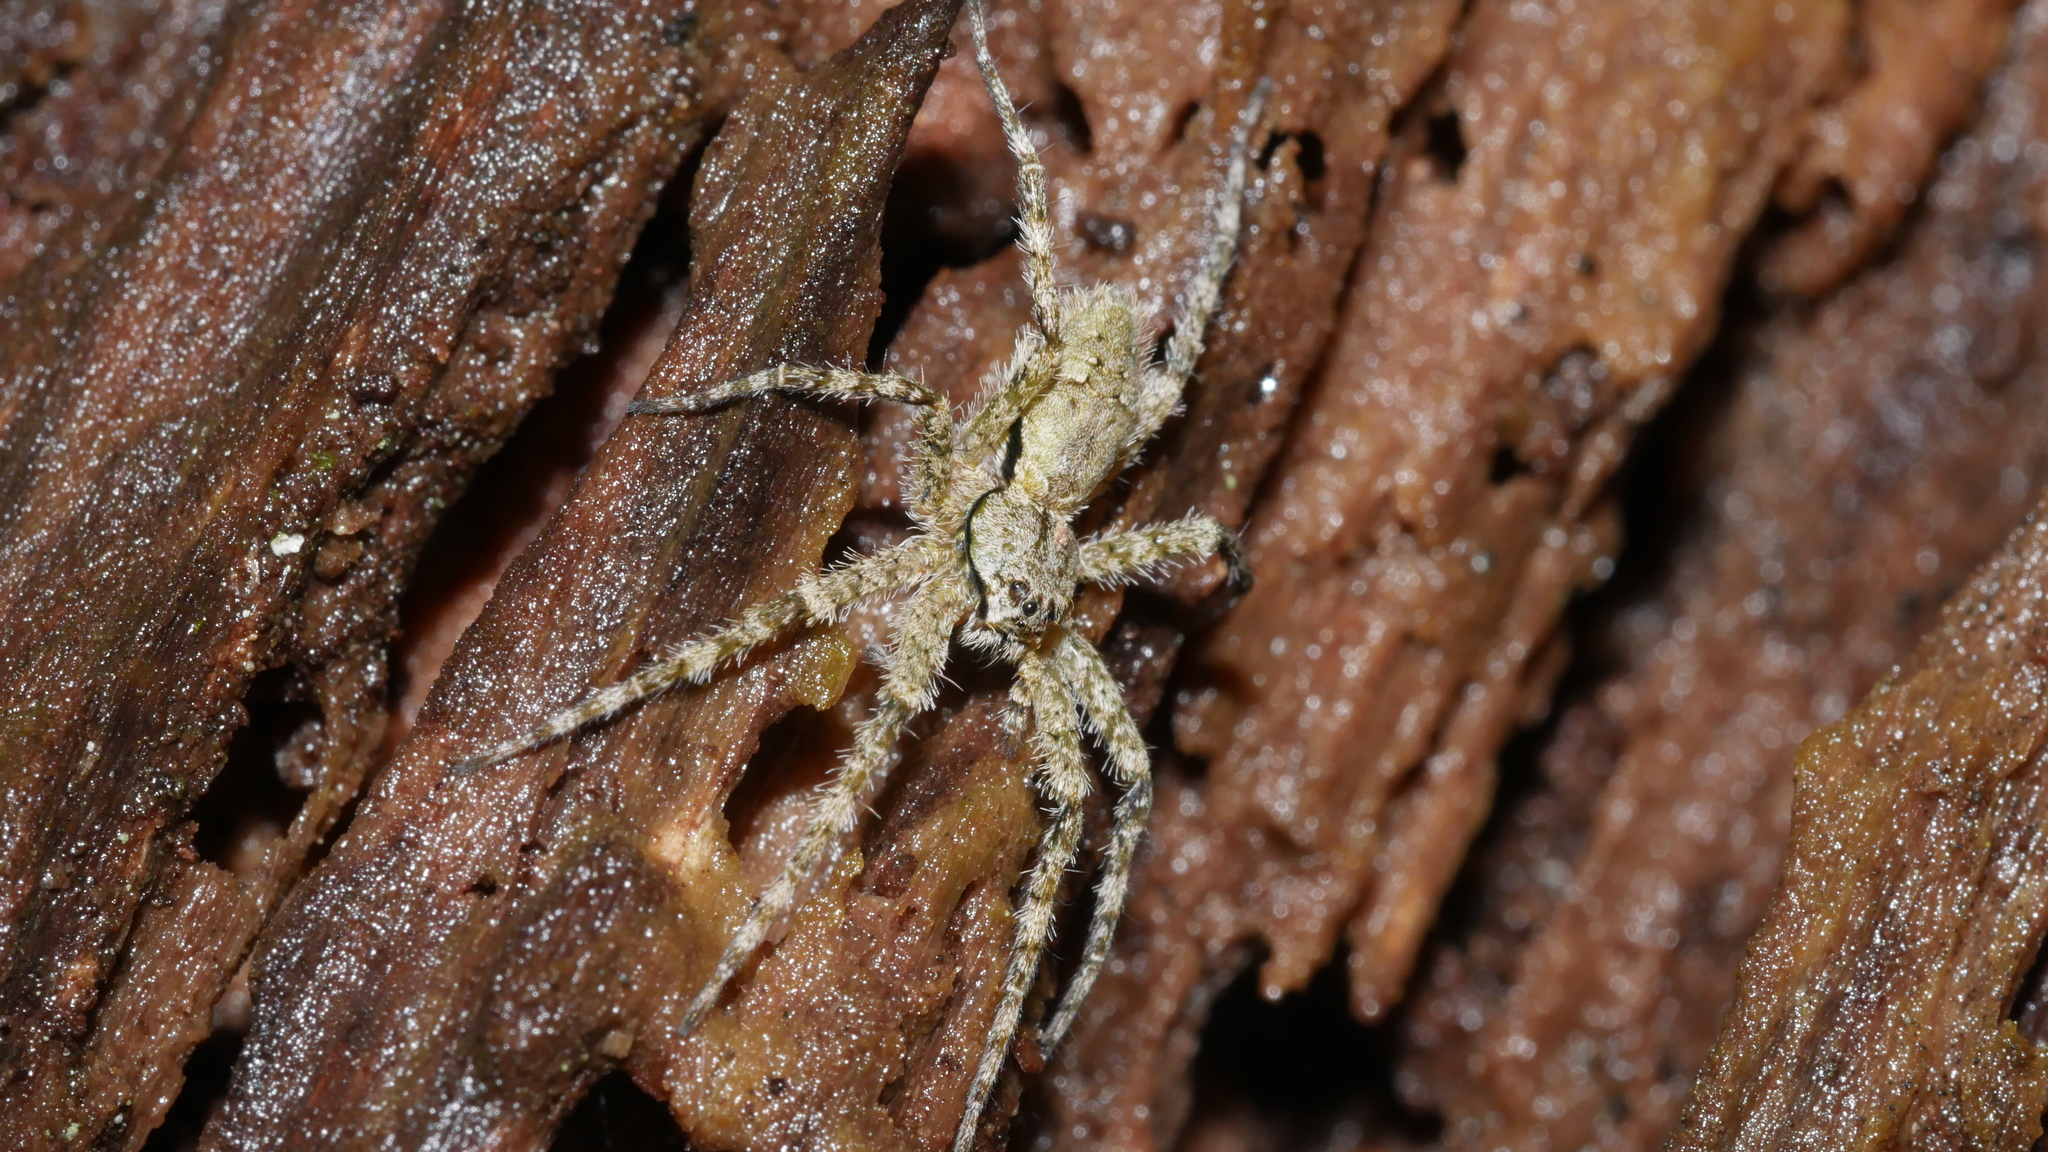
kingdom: Animalia
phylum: Arthropoda
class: Arachnida
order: Araneae
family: Pisauridae
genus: Dolomedes
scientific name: Dolomedes albineus
